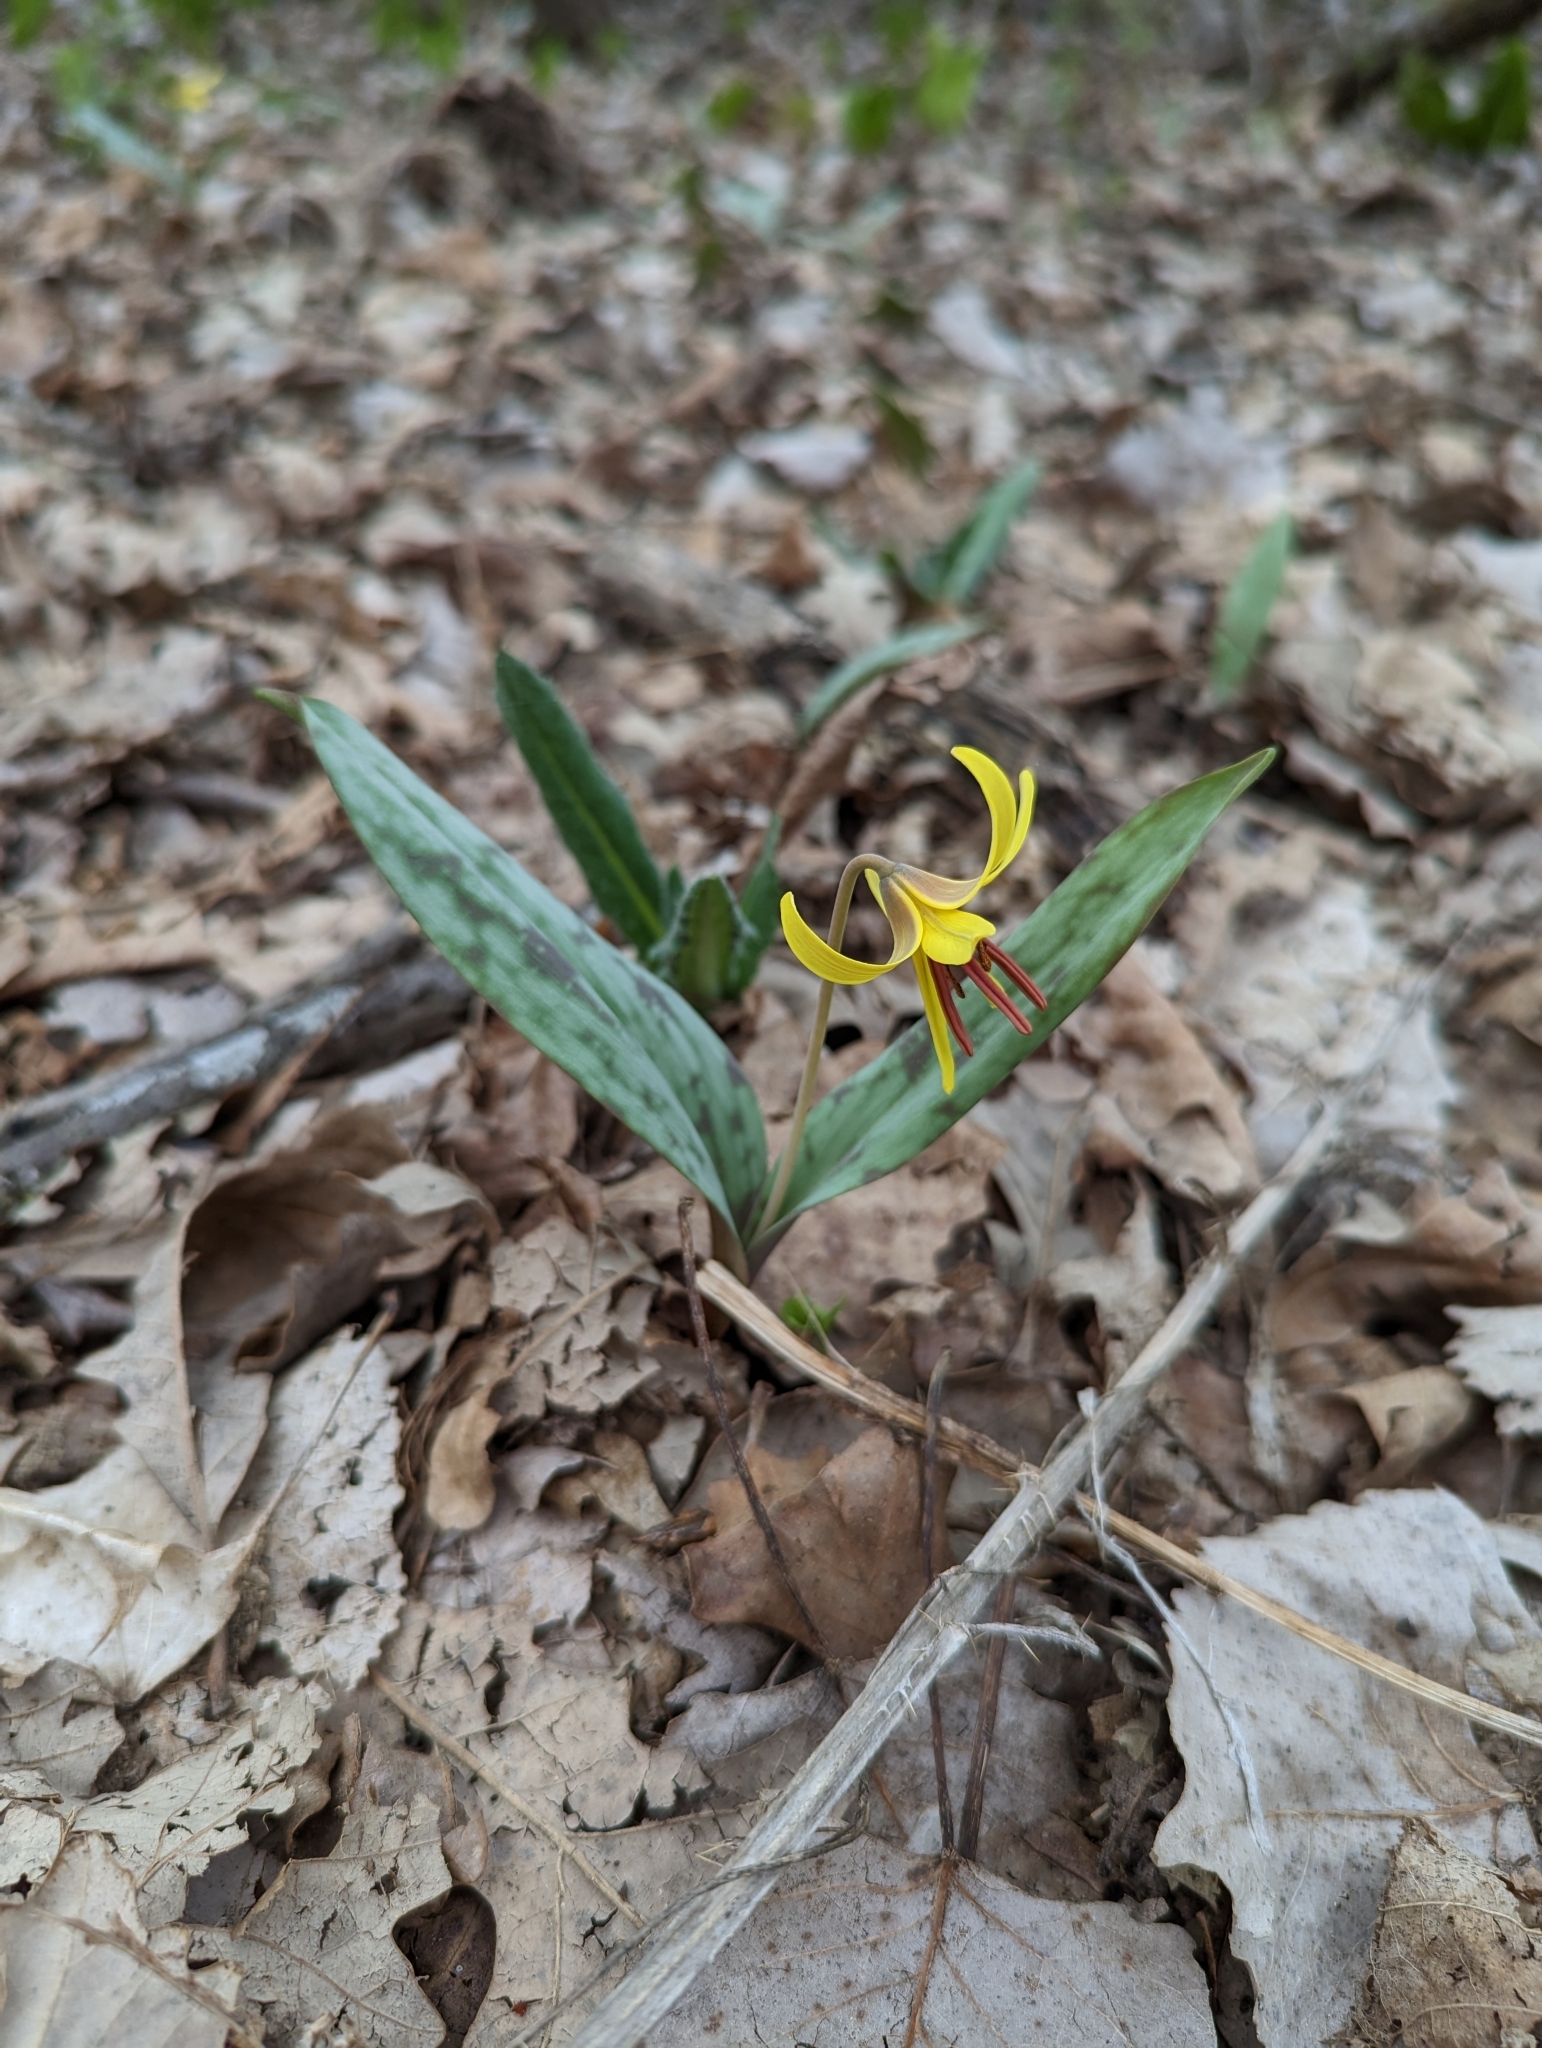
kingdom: Plantae
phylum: Tracheophyta
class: Liliopsida
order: Liliales
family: Liliaceae
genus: Erythronium
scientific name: Erythronium americanum
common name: Yellow adder's-tongue
